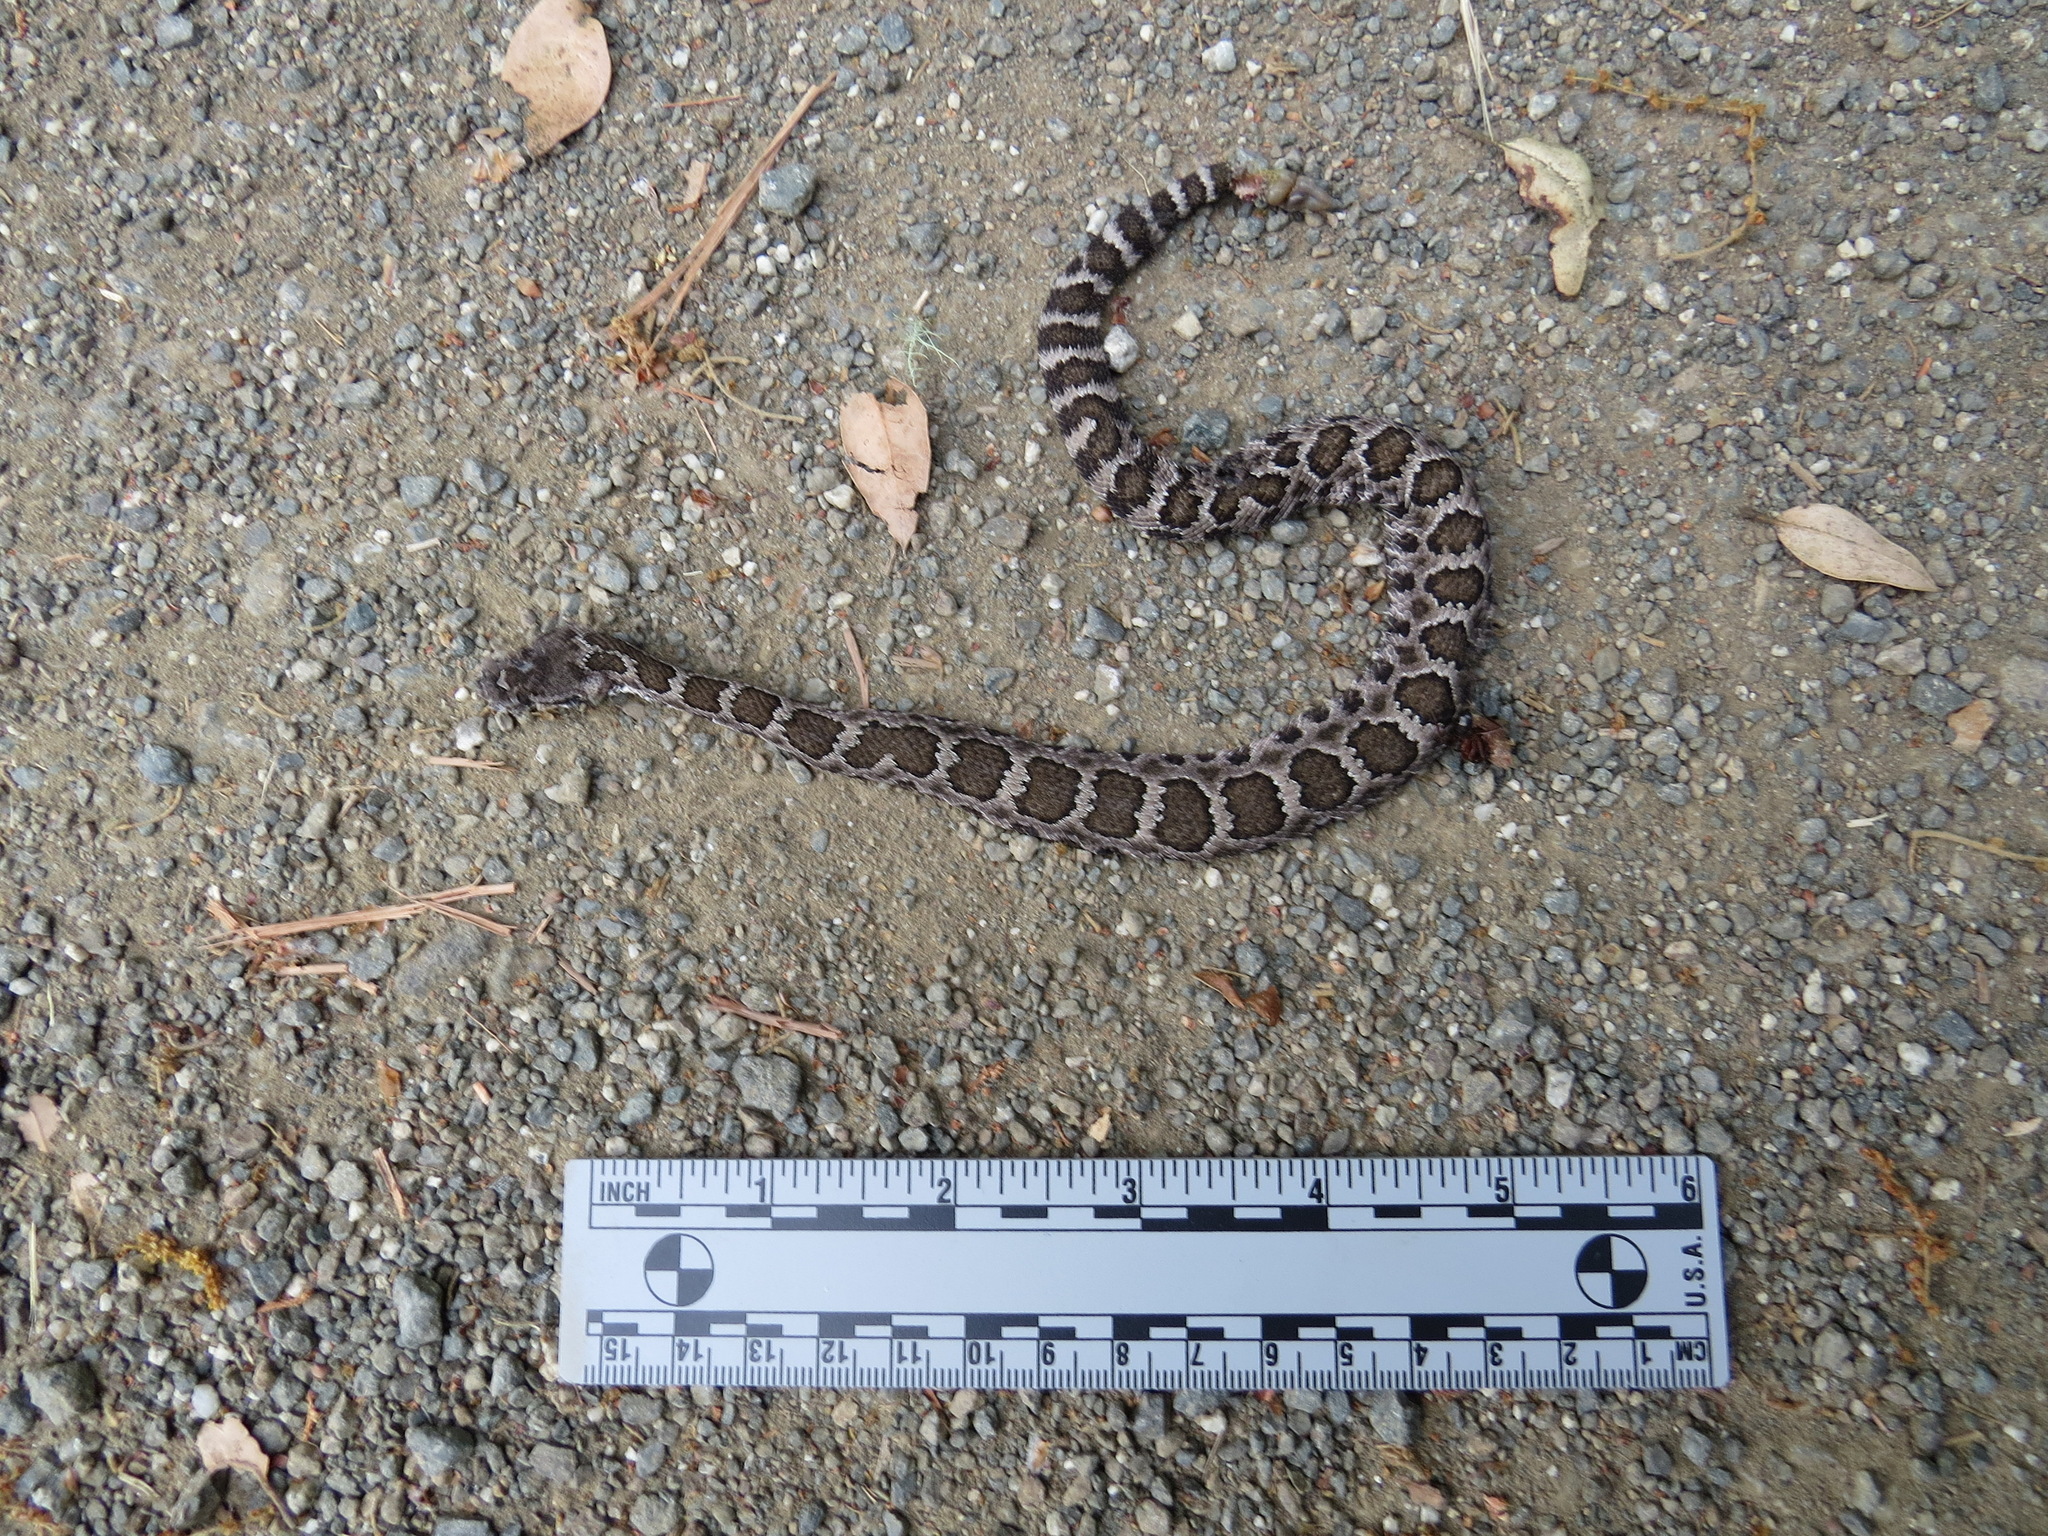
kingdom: Animalia
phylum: Chordata
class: Squamata
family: Viperidae
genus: Crotalus
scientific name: Crotalus oreganus
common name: Abyssus
